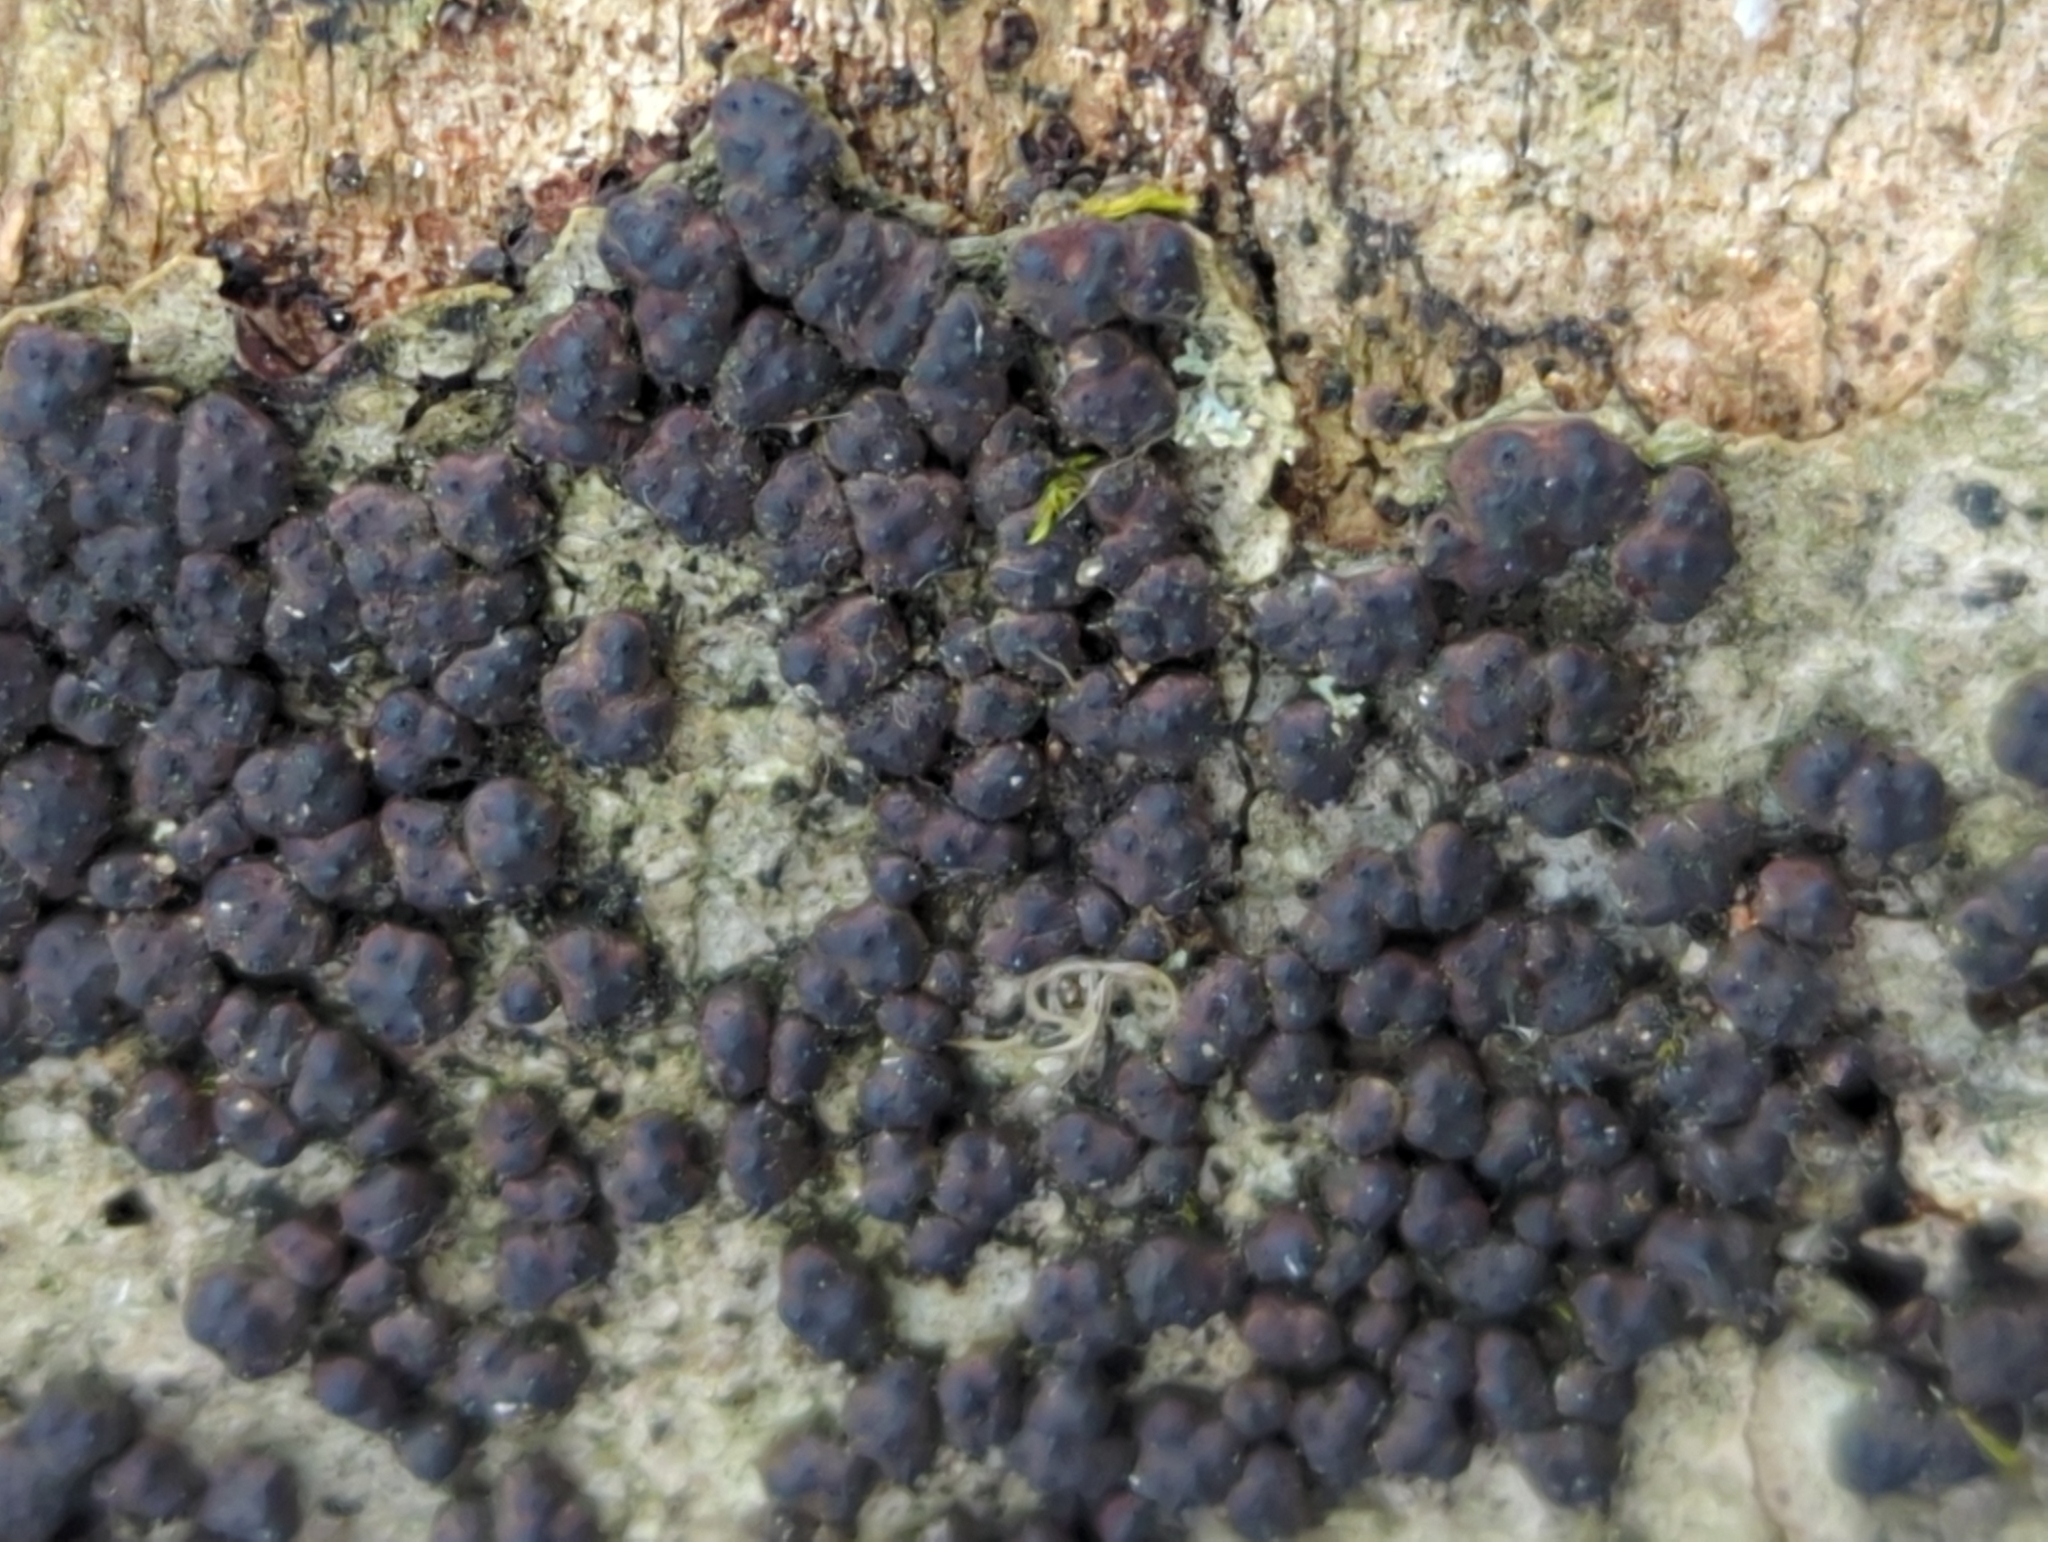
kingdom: Fungi
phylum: Ascomycota
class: Sordariomycetes
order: Xylariales
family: Hypoxylaceae
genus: Jackrogersella
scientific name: Jackrogersella cohaerens
